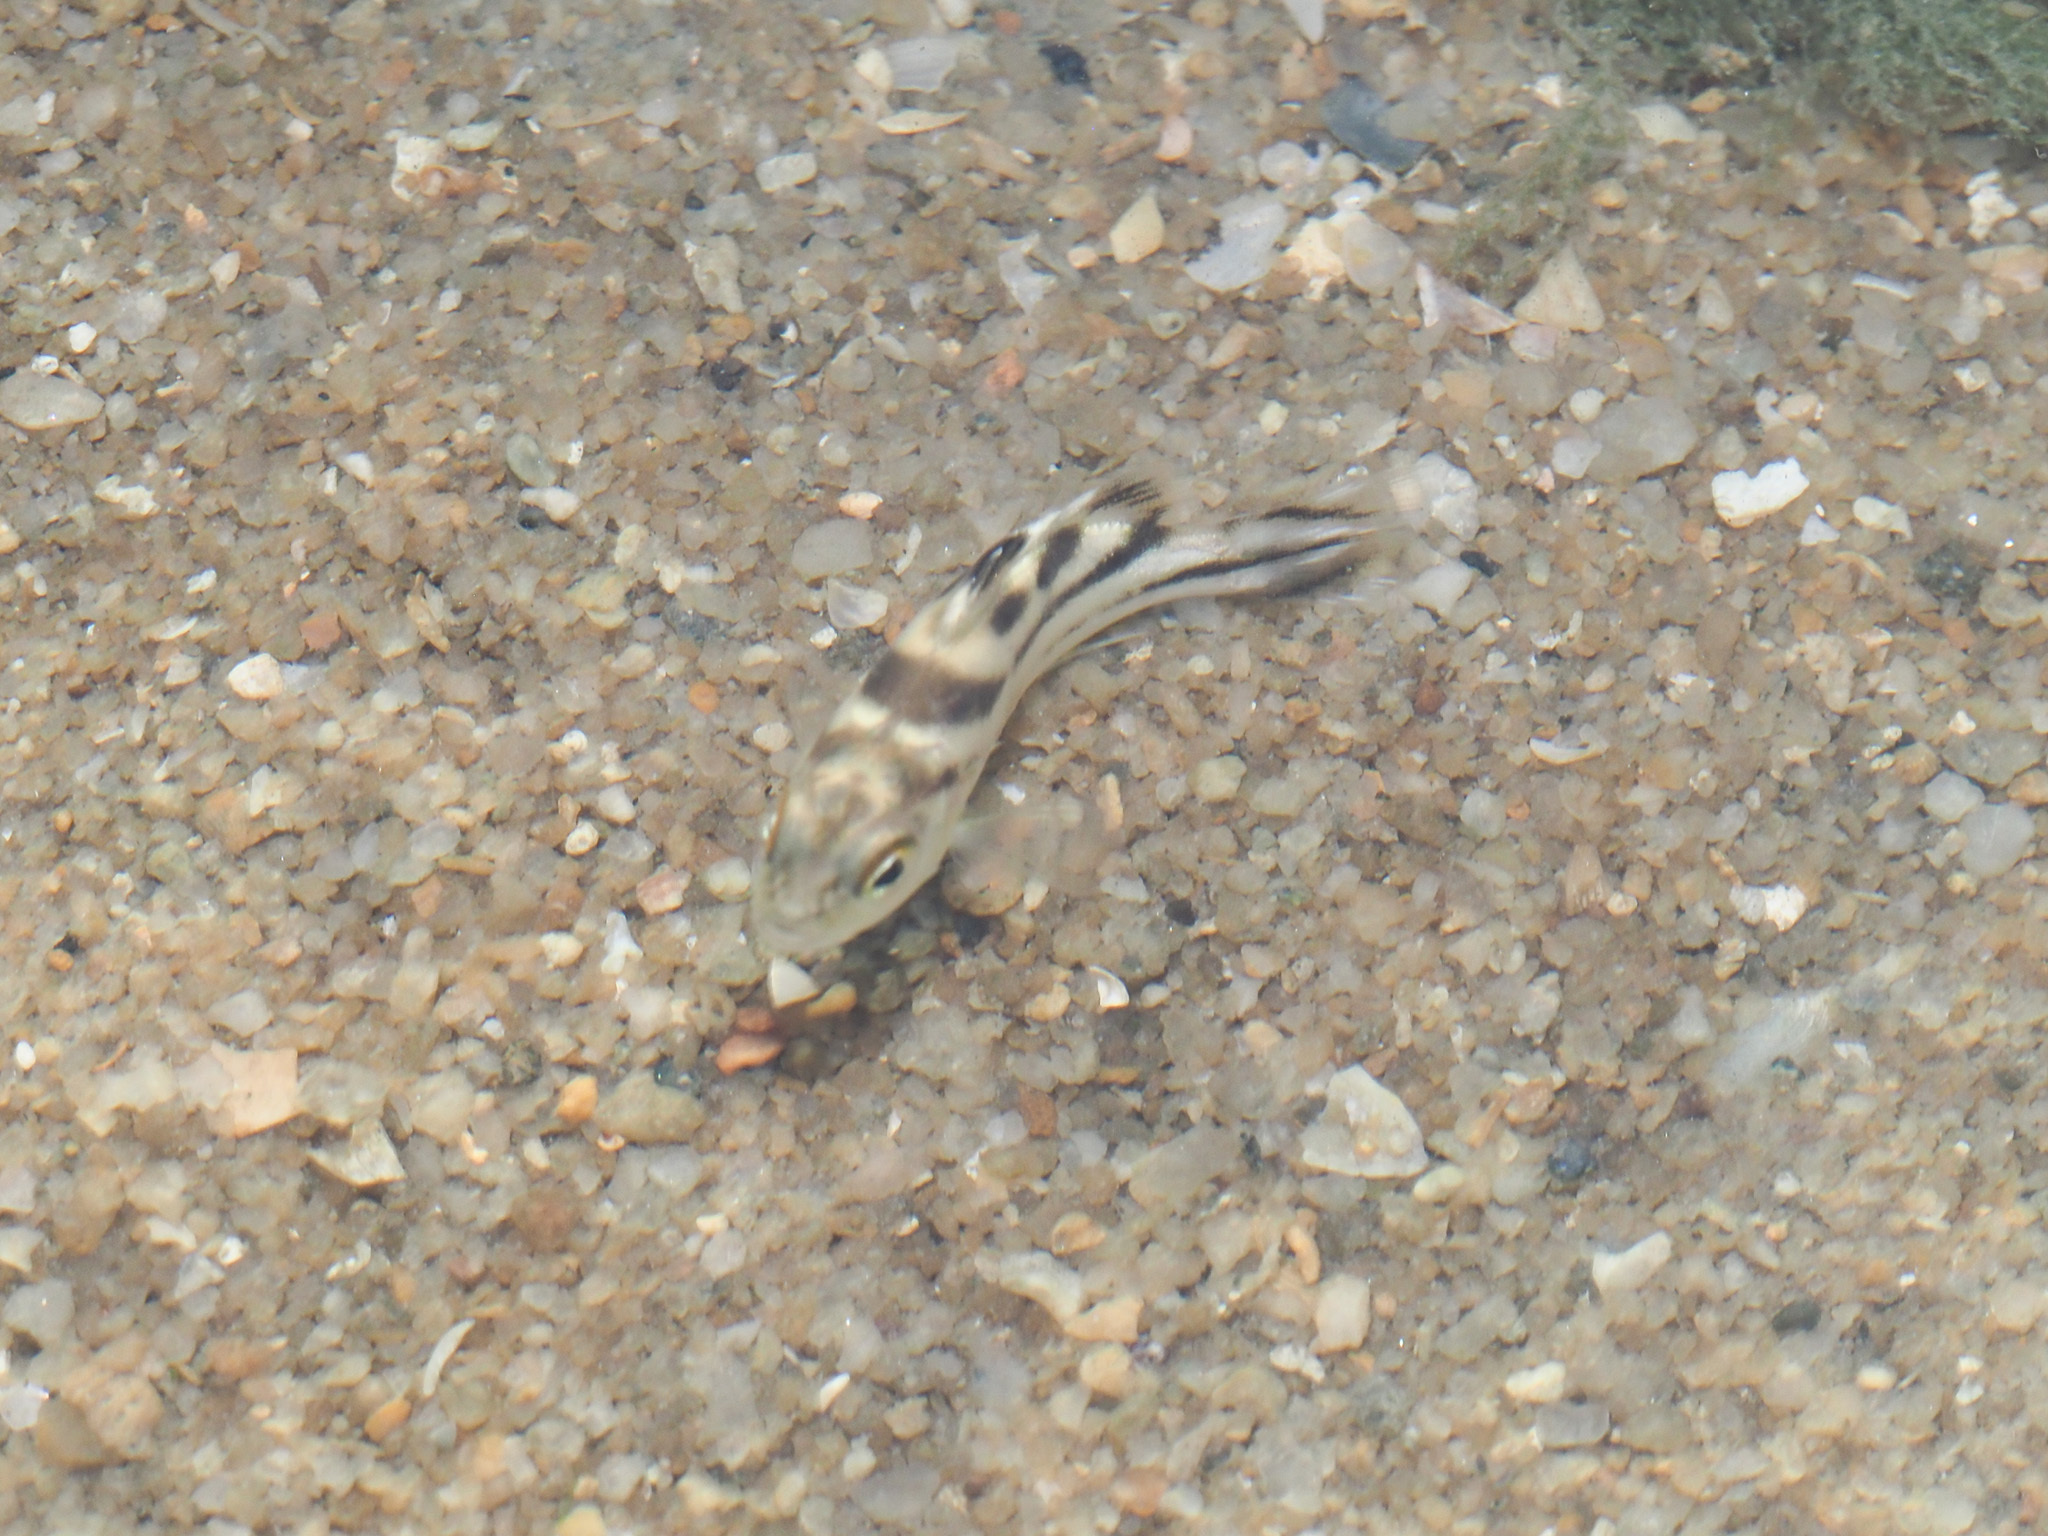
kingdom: Animalia
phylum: Chordata
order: Perciformes
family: Terapontidae
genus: Terapon
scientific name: Terapon jarbua
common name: Jarbua terapon
